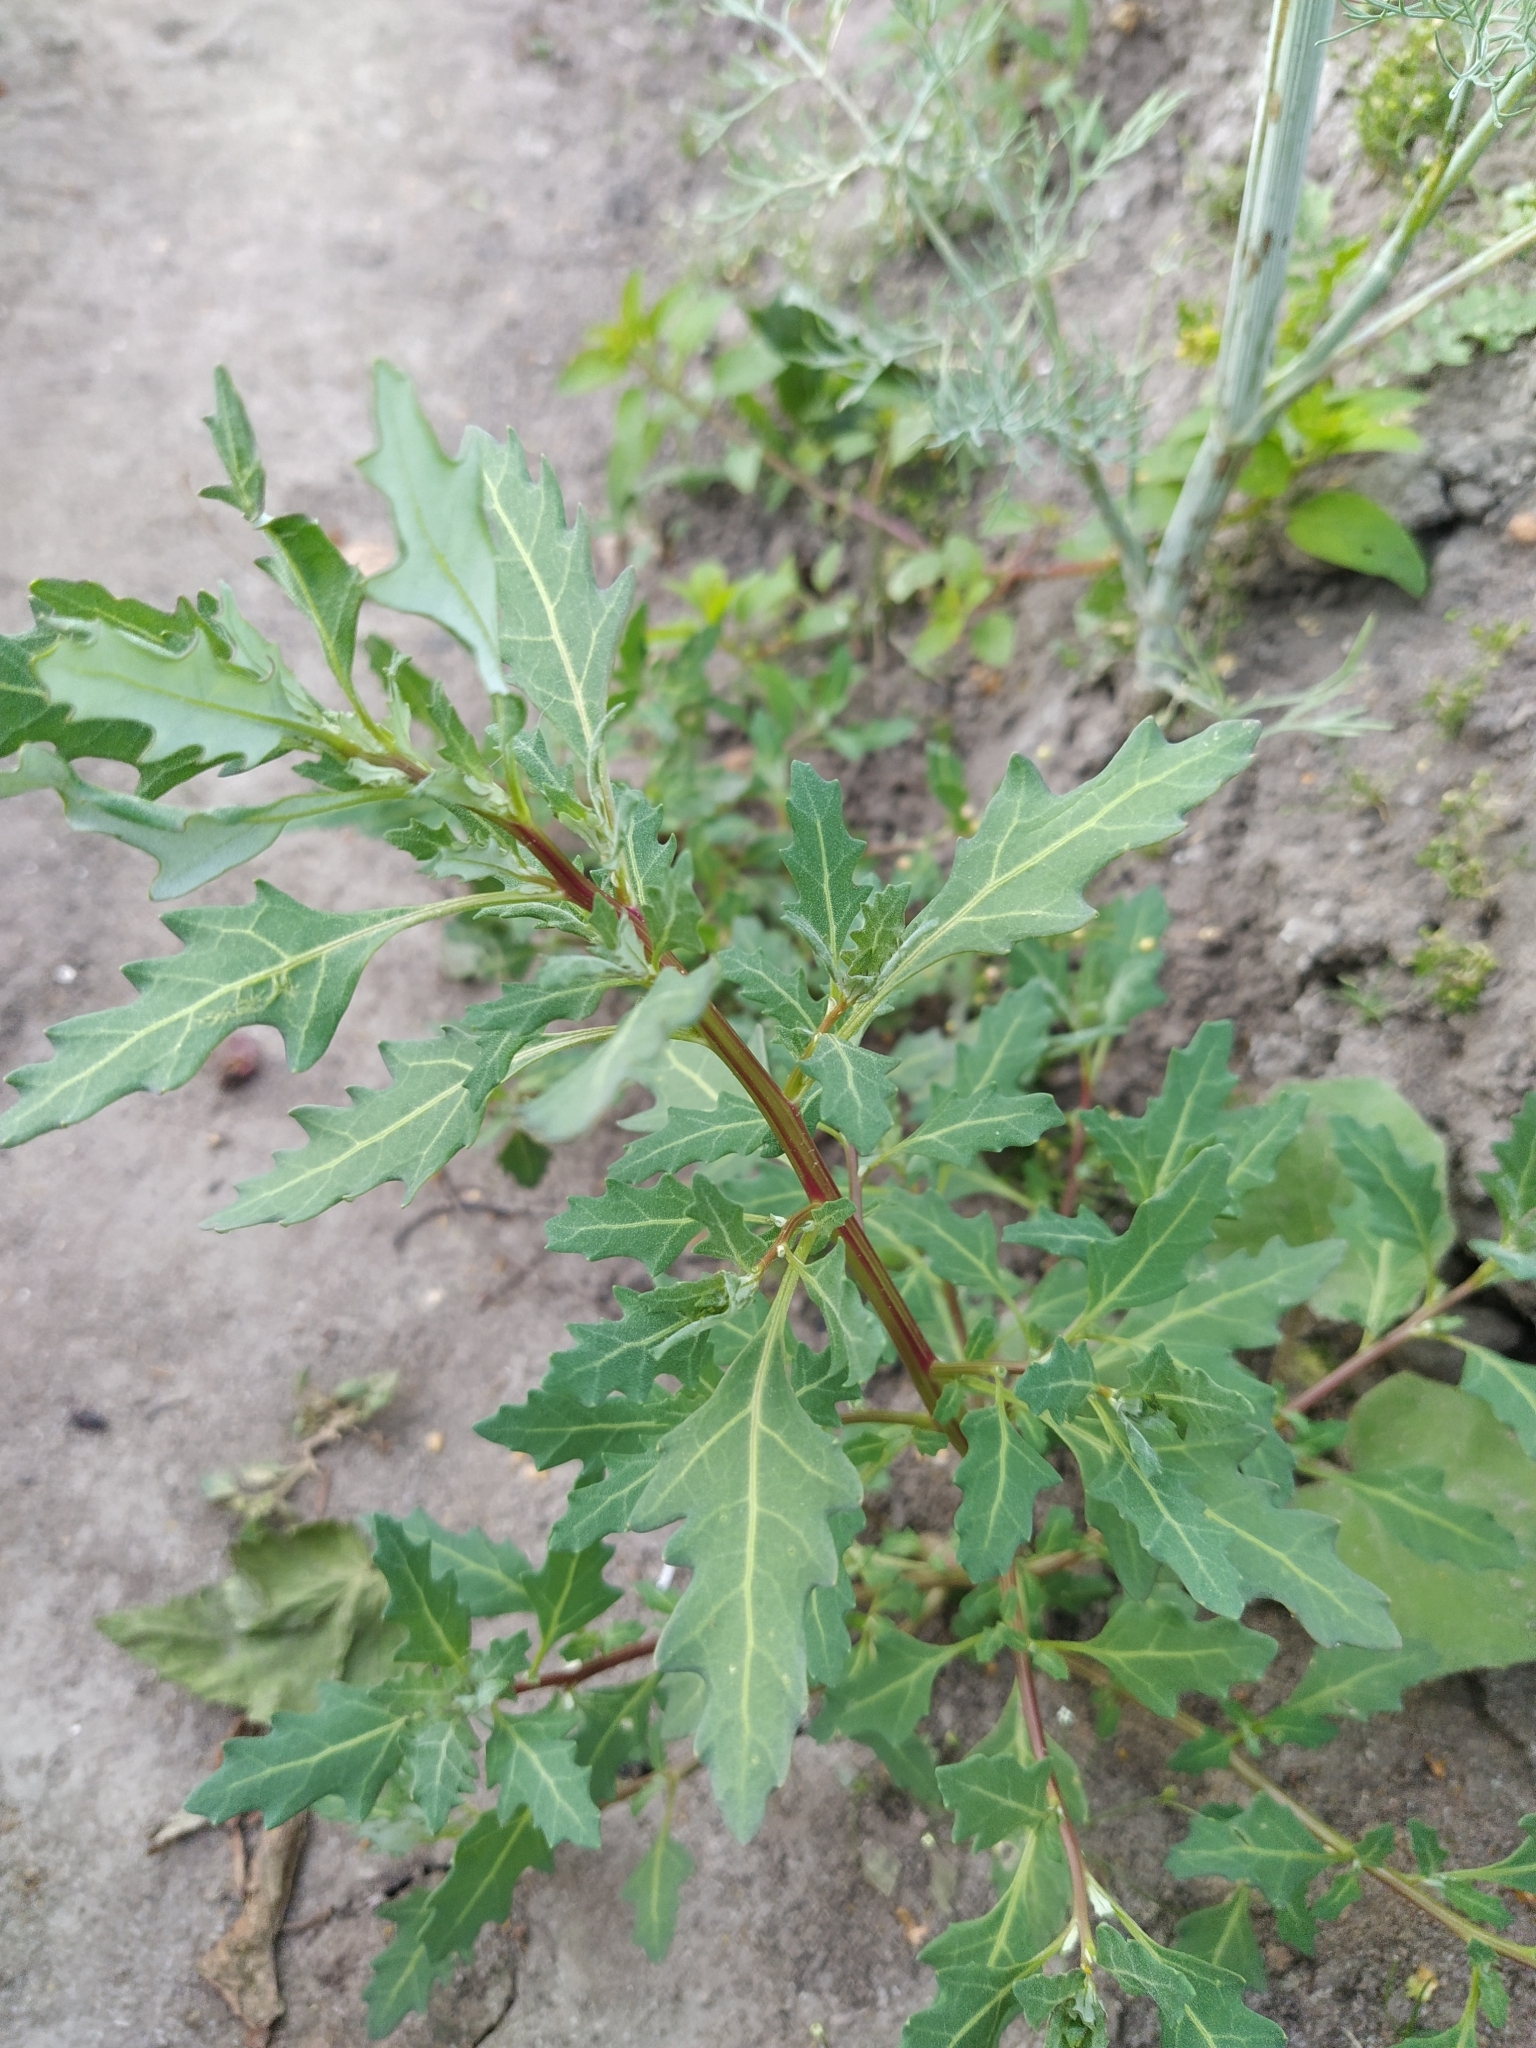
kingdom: Plantae
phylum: Tracheophyta
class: Magnoliopsida
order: Caryophyllales
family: Amaranthaceae
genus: Oxybasis
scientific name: Oxybasis glauca
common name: Glaucous goosefoot
